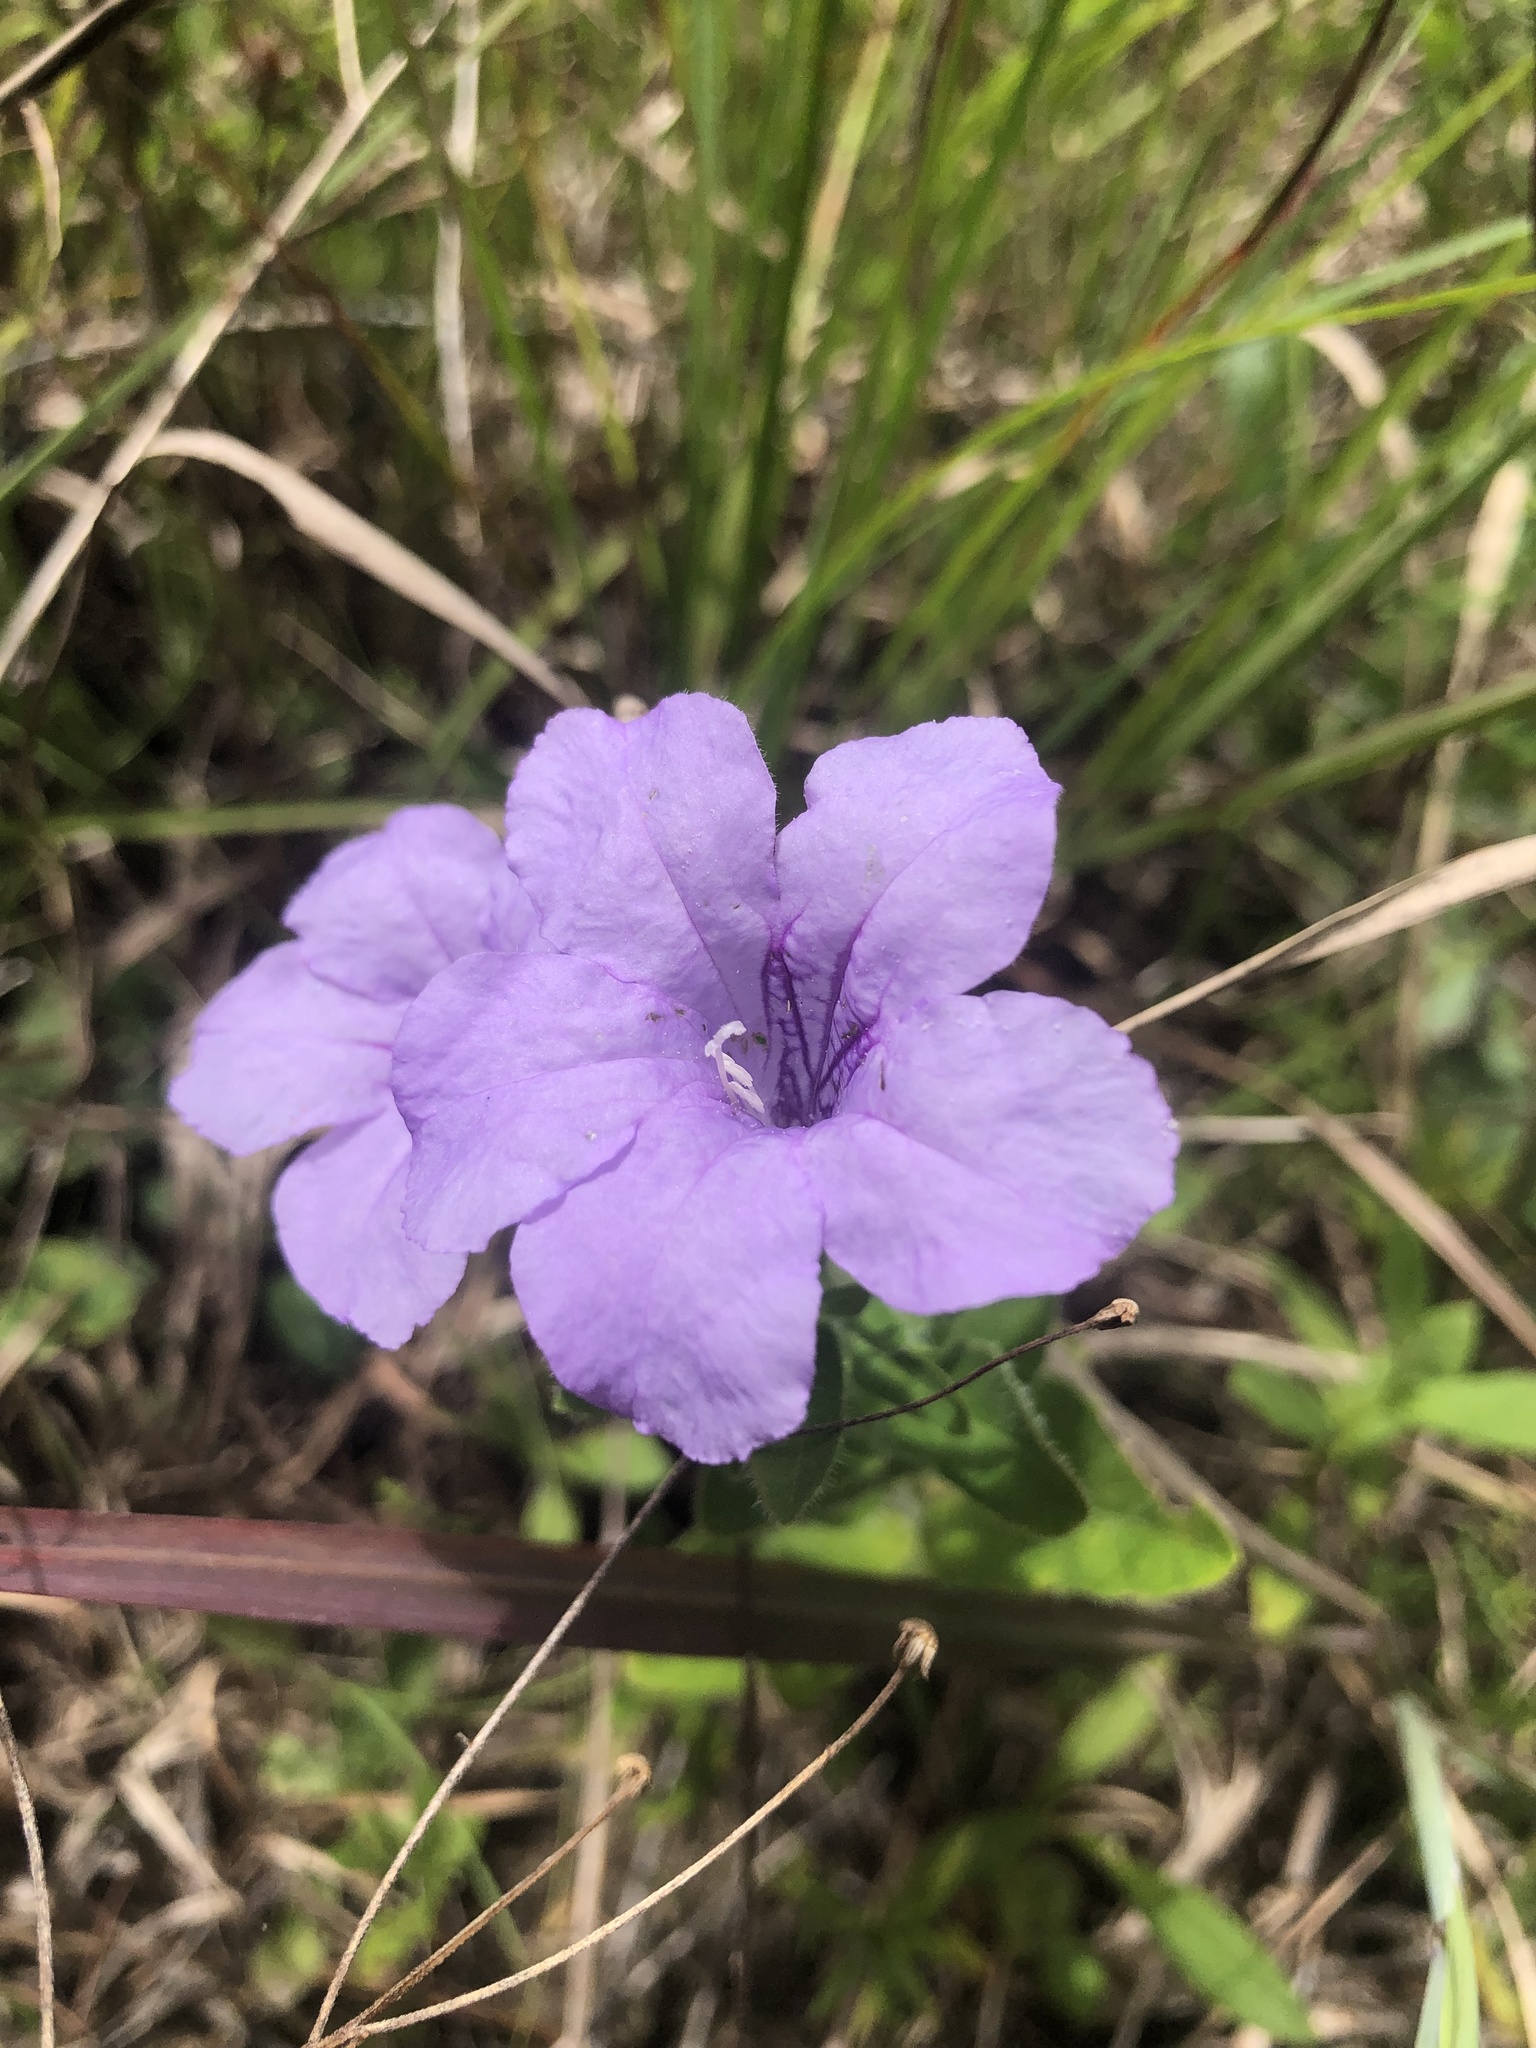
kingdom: Plantae
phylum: Tracheophyta
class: Magnoliopsida
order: Lamiales
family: Acanthaceae
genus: Ruellia
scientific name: Ruellia humilis
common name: Fringe-leaf ruellia
